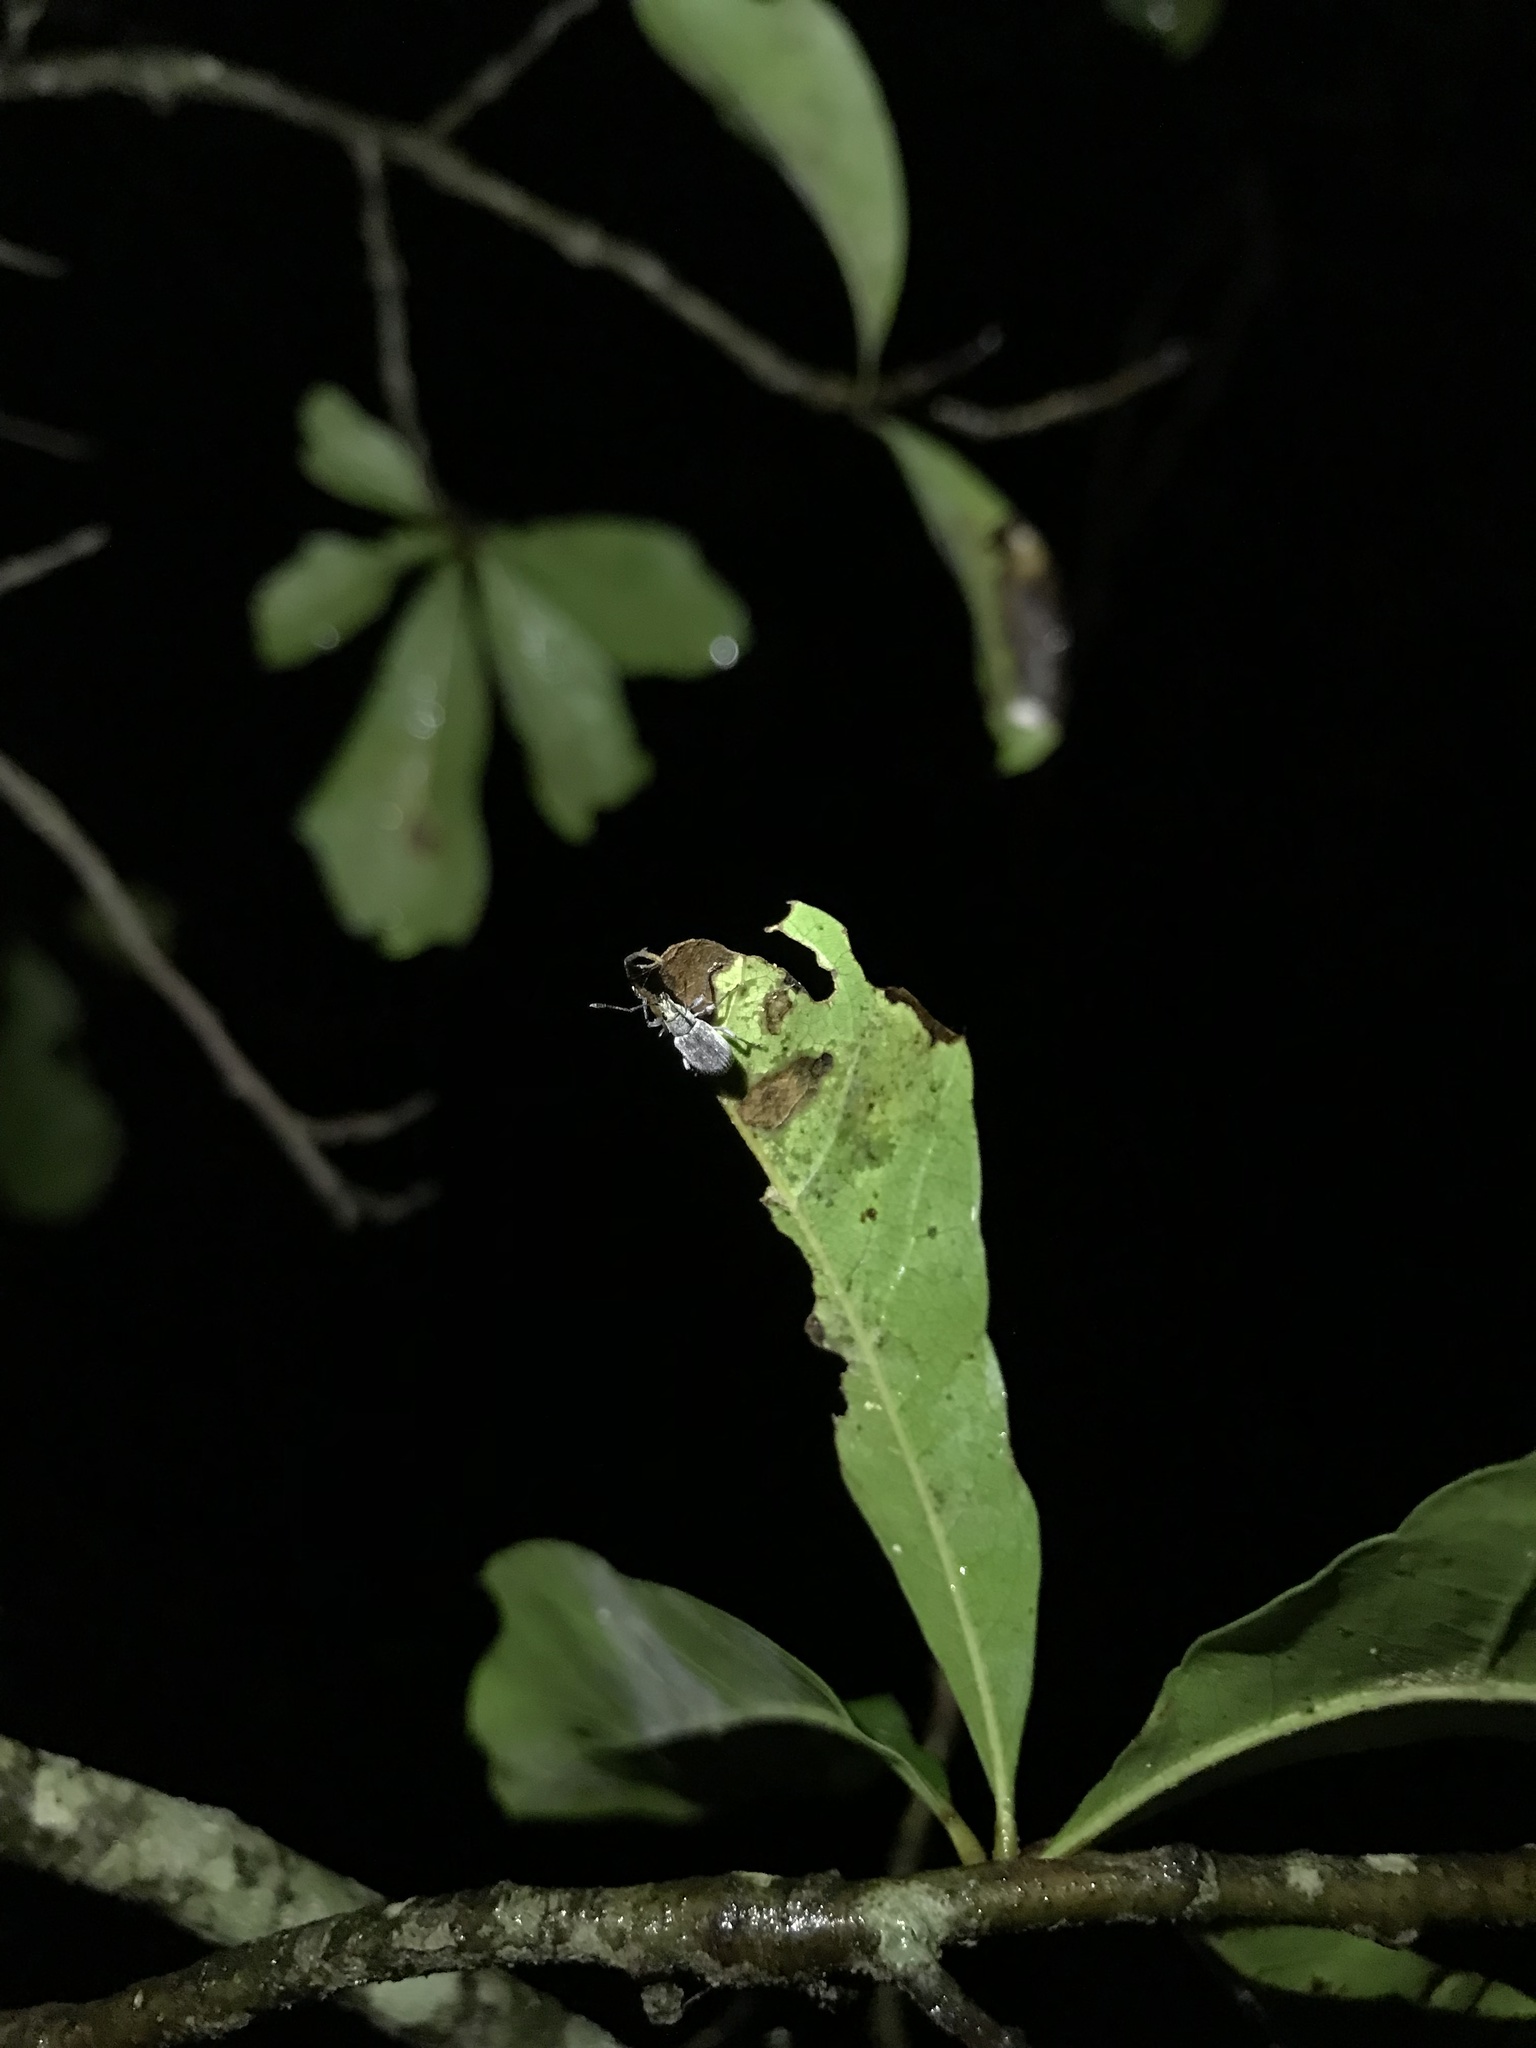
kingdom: Animalia
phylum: Arthropoda
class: Insecta
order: Coleoptera
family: Curculionidae
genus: Cyrtepistomus
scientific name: Cyrtepistomus castaneus
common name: Weevil
